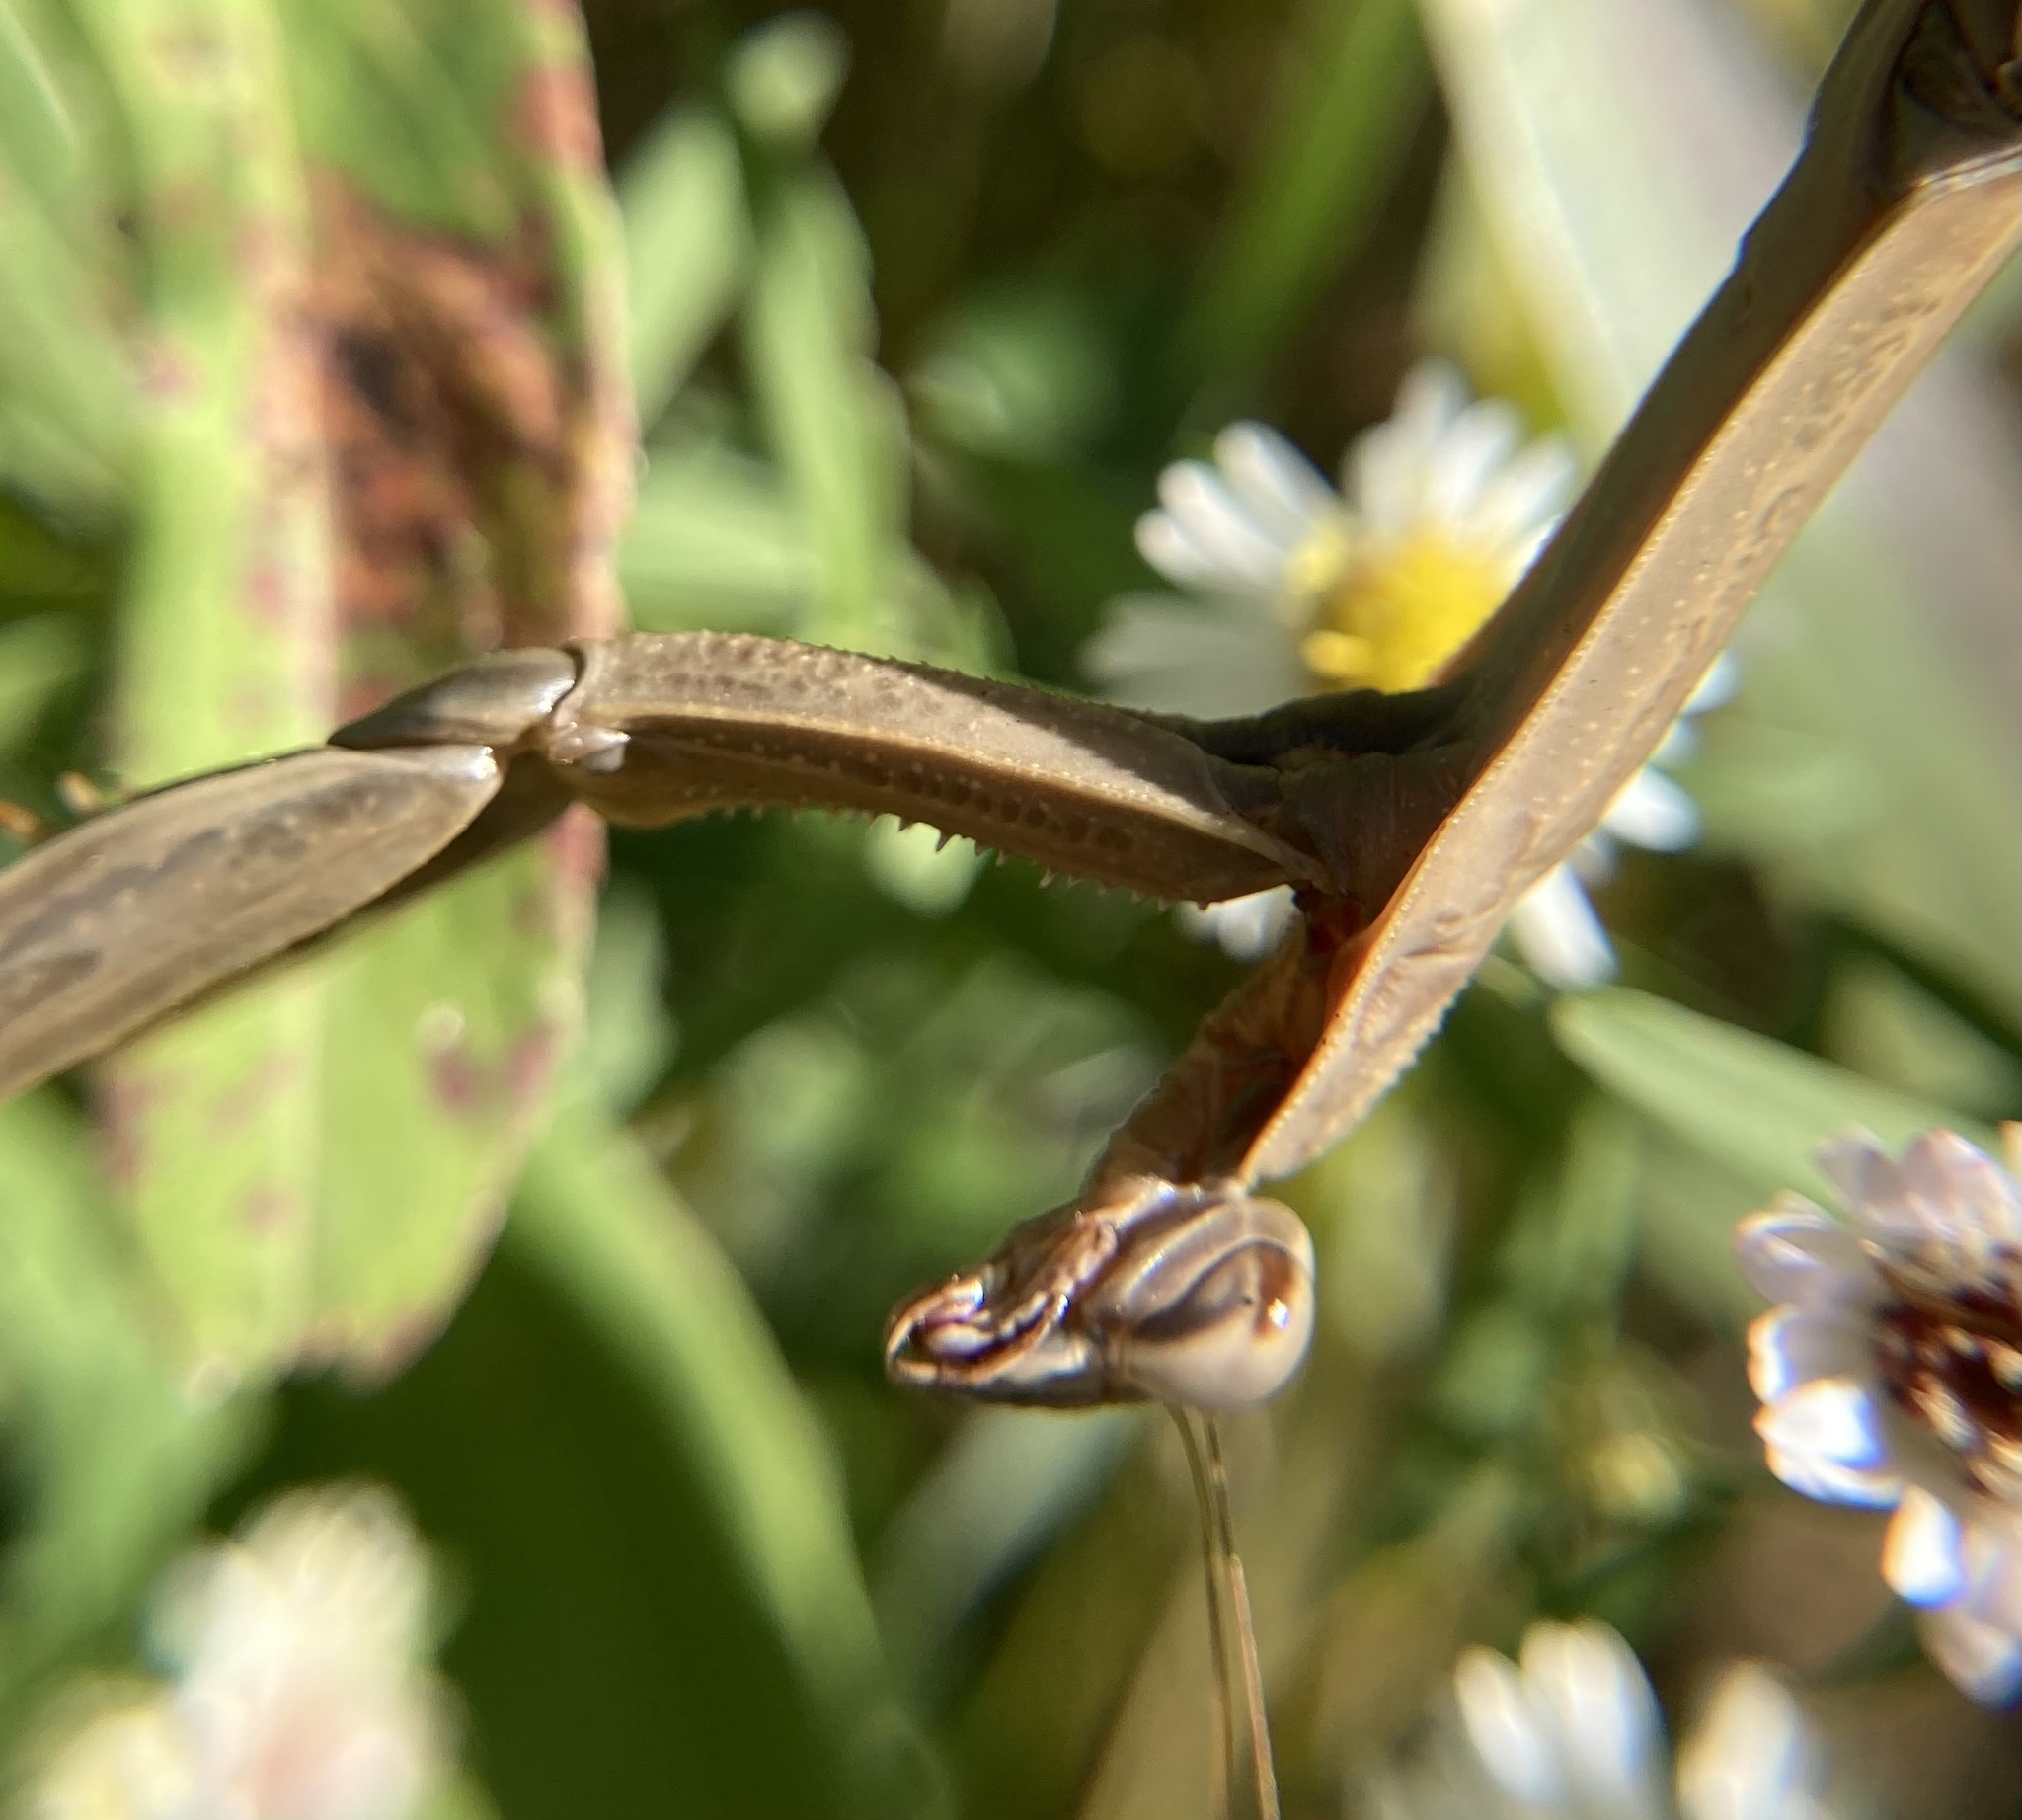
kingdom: Animalia
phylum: Arthropoda
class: Insecta
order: Mantodea
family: Mantidae
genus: Tenodera
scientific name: Tenodera sinensis
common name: Chinese mantis
